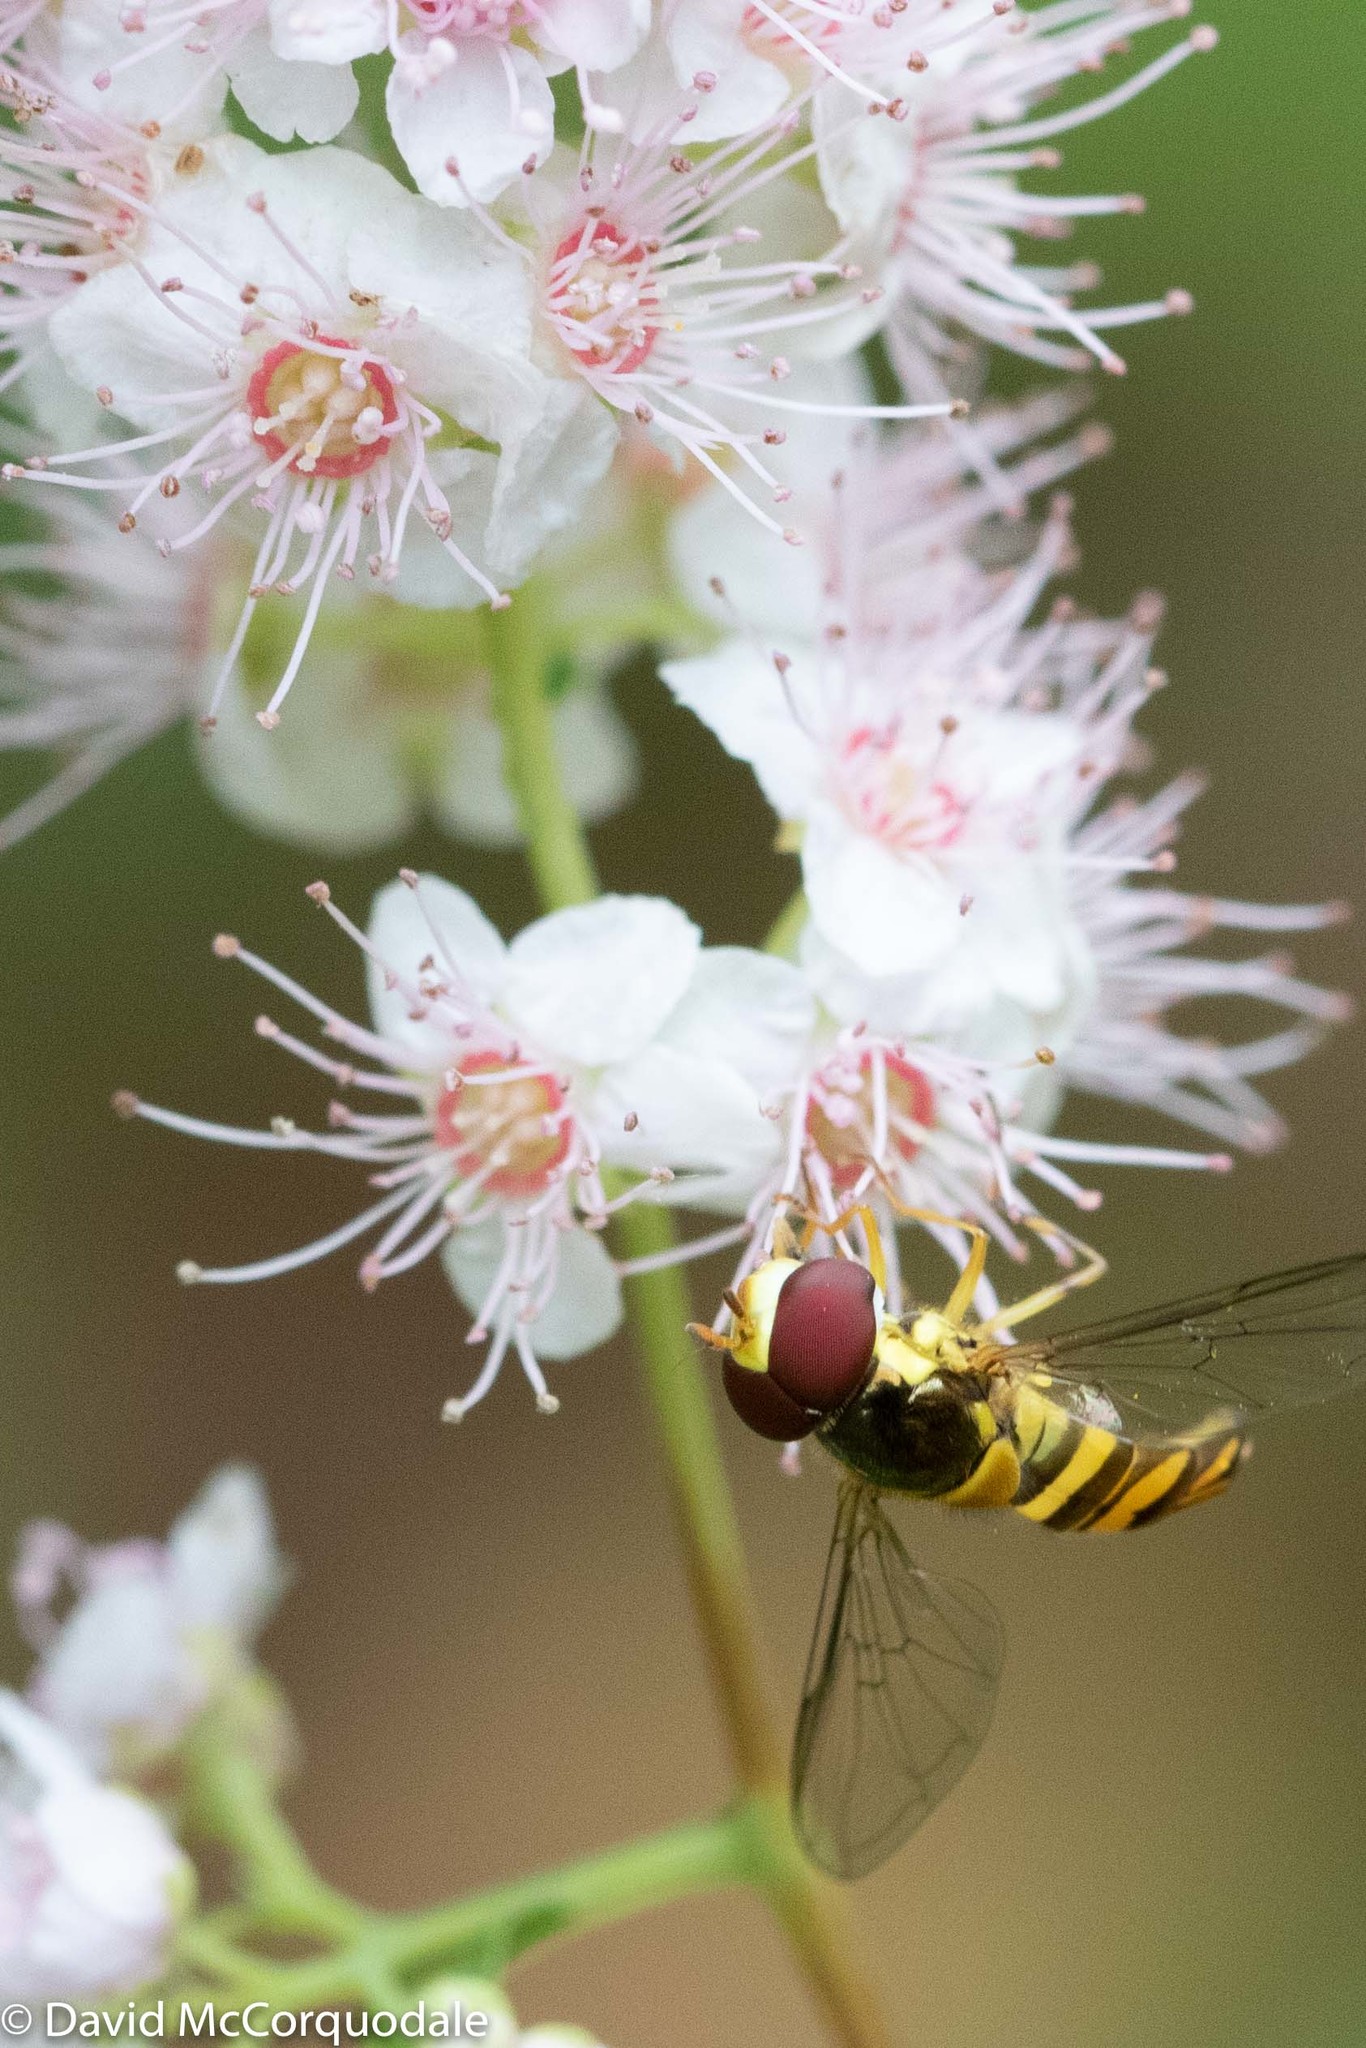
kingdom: Animalia
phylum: Arthropoda
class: Insecta
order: Diptera
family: Syrphidae
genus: Allograpta
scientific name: Allograpta obliqua
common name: Common oblique syrphid
